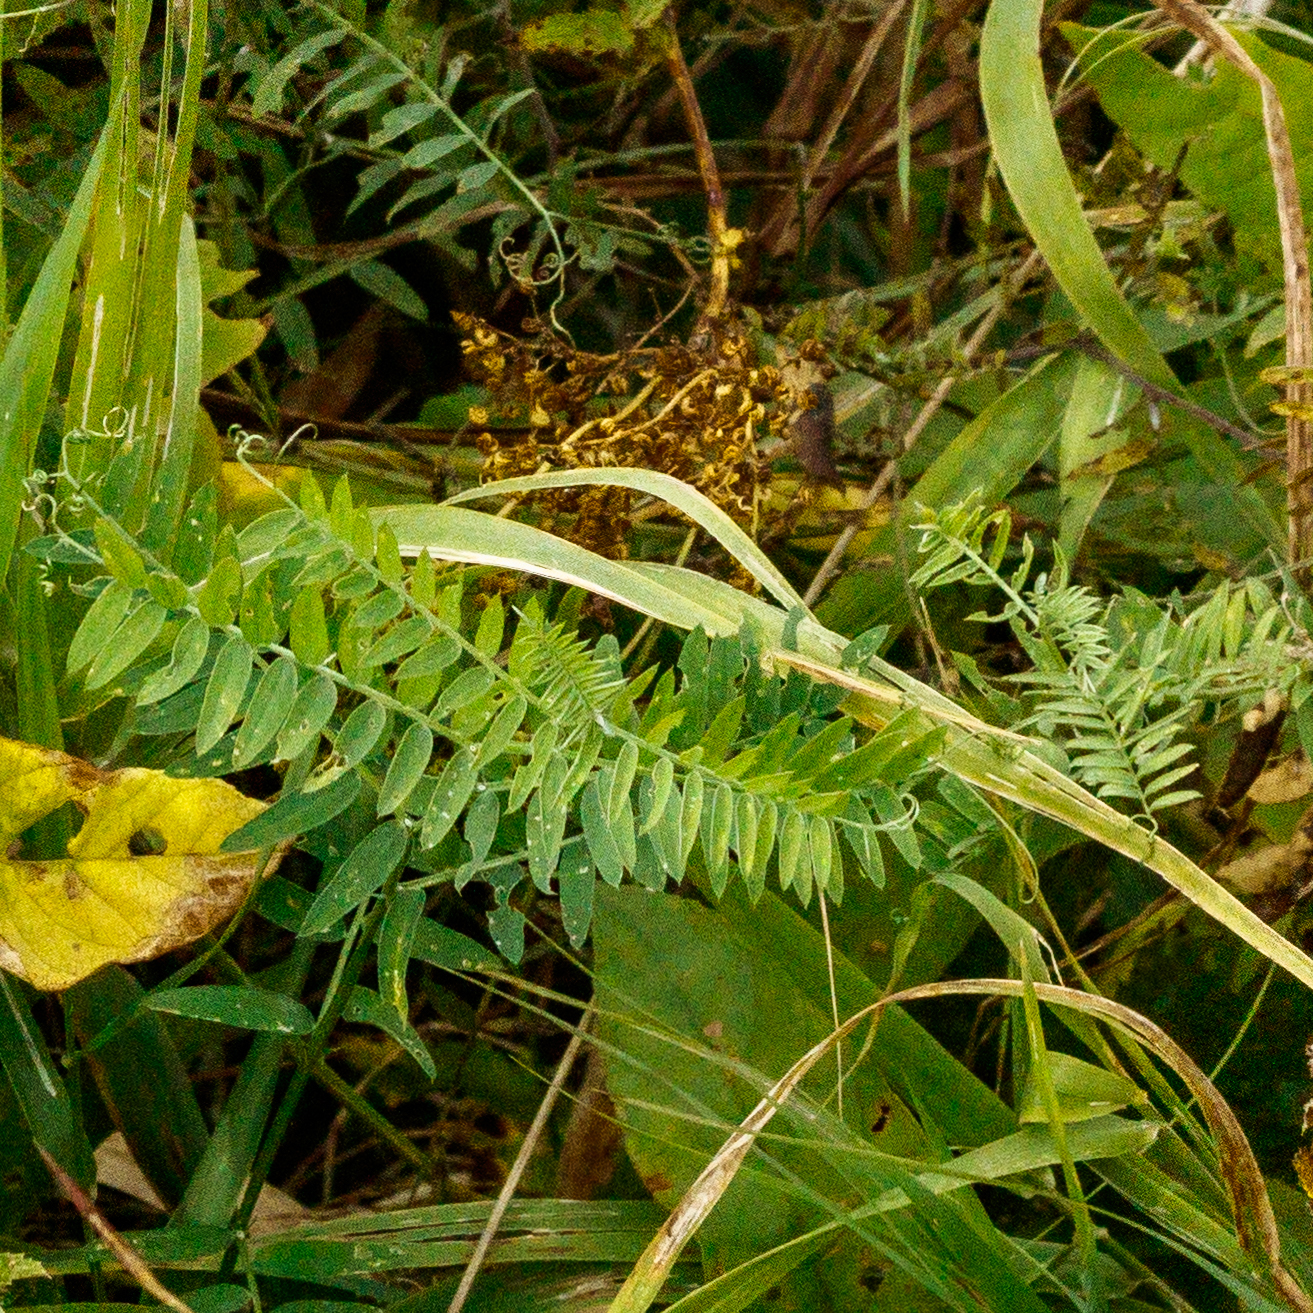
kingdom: Plantae
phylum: Tracheophyta
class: Magnoliopsida
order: Fabales
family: Fabaceae
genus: Vicia
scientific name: Vicia cracca
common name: Bird vetch
